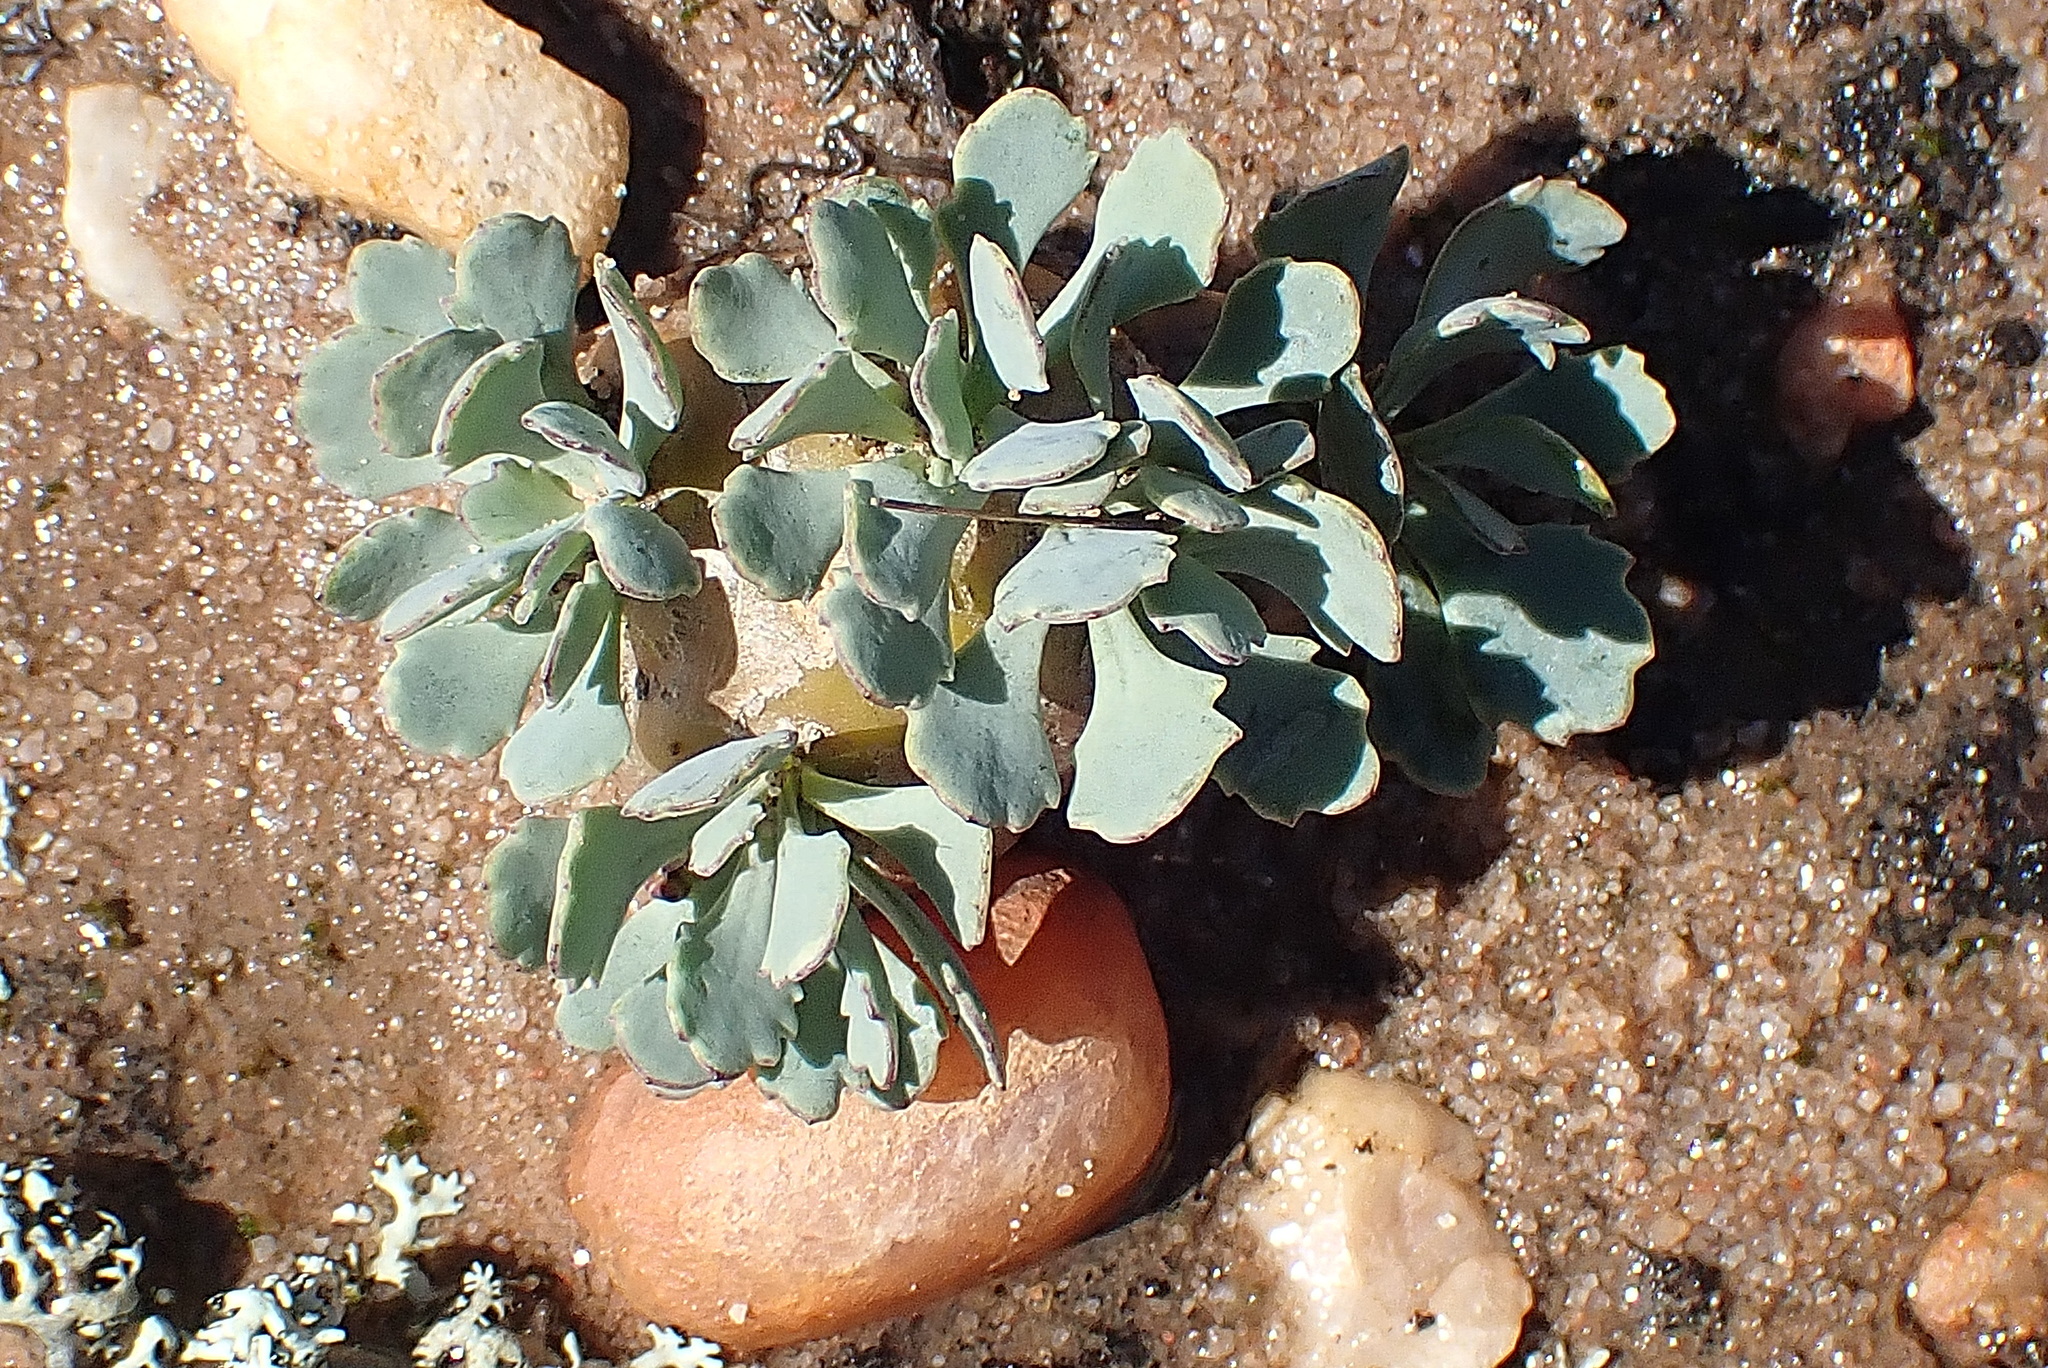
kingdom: Plantae
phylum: Tracheophyta
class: Magnoliopsida
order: Asterales
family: Asteraceae
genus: Crassothonna
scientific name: Crassothonna cacalioides
